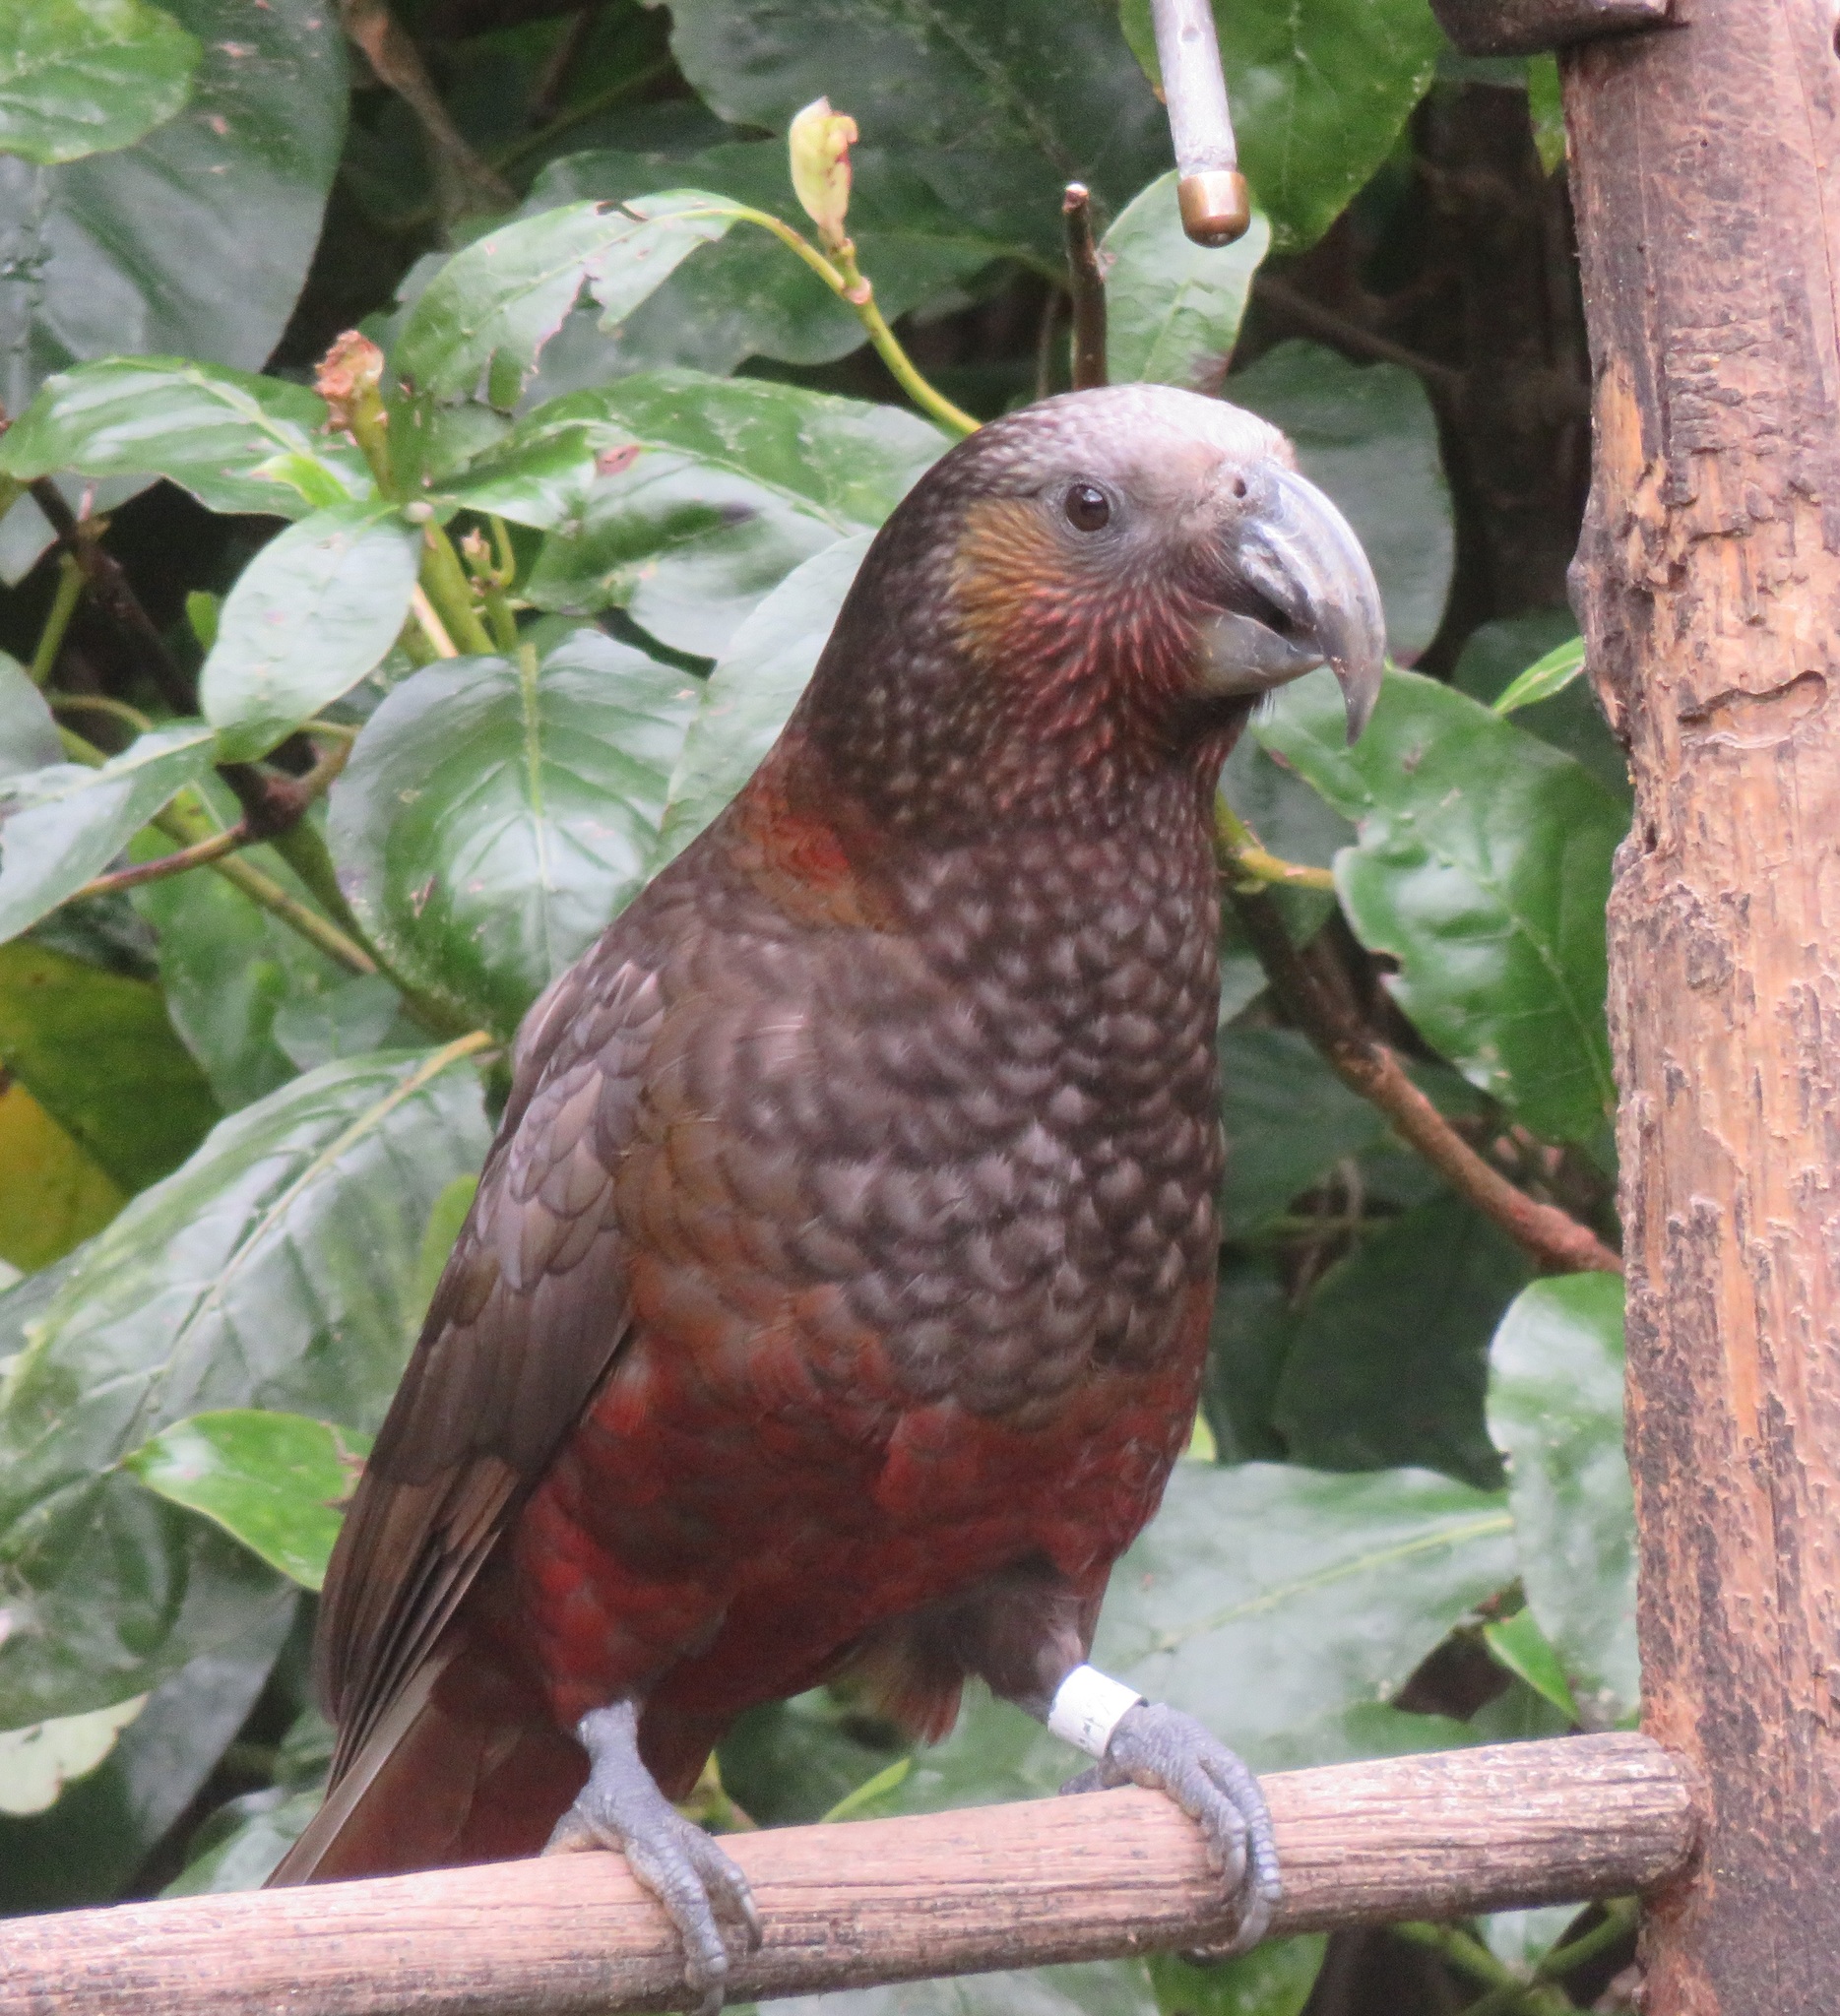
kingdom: Animalia
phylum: Chordata
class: Aves
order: Psittaciformes
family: Psittacidae
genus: Nestor
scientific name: Nestor meridionalis
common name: New zealand kaka
